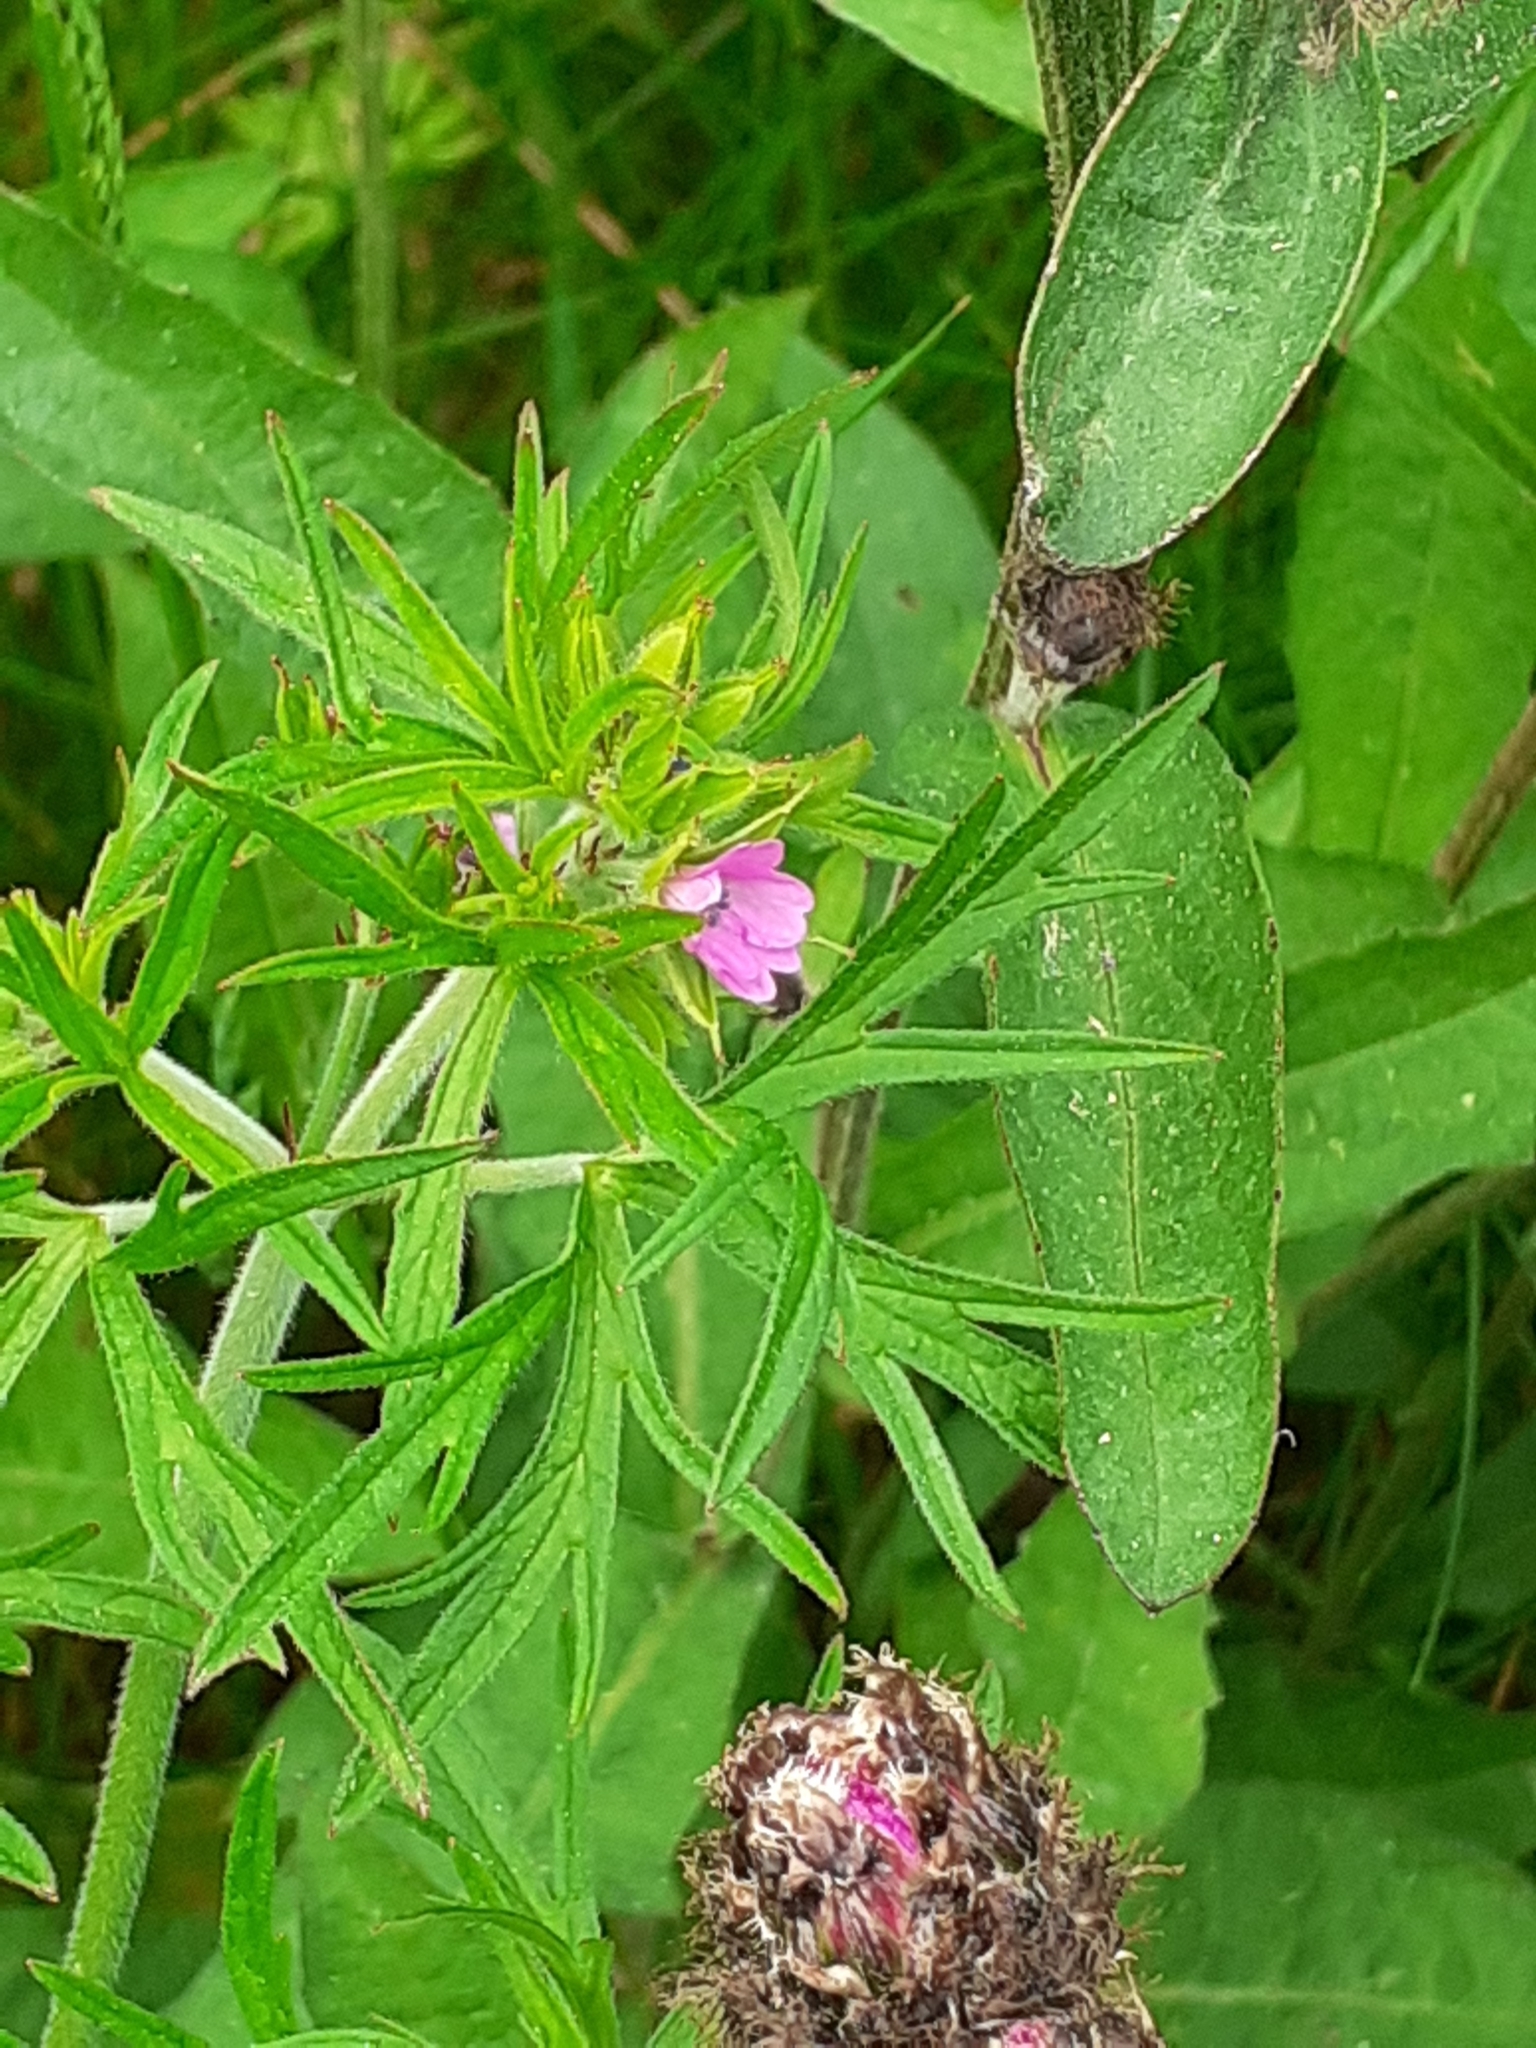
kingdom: Plantae
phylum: Tracheophyta
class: Magnoliopsida
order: Geraniales
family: Geraniaceae
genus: Geranium
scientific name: Geranium dissectum
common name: Cut-leaved crane's-bill
